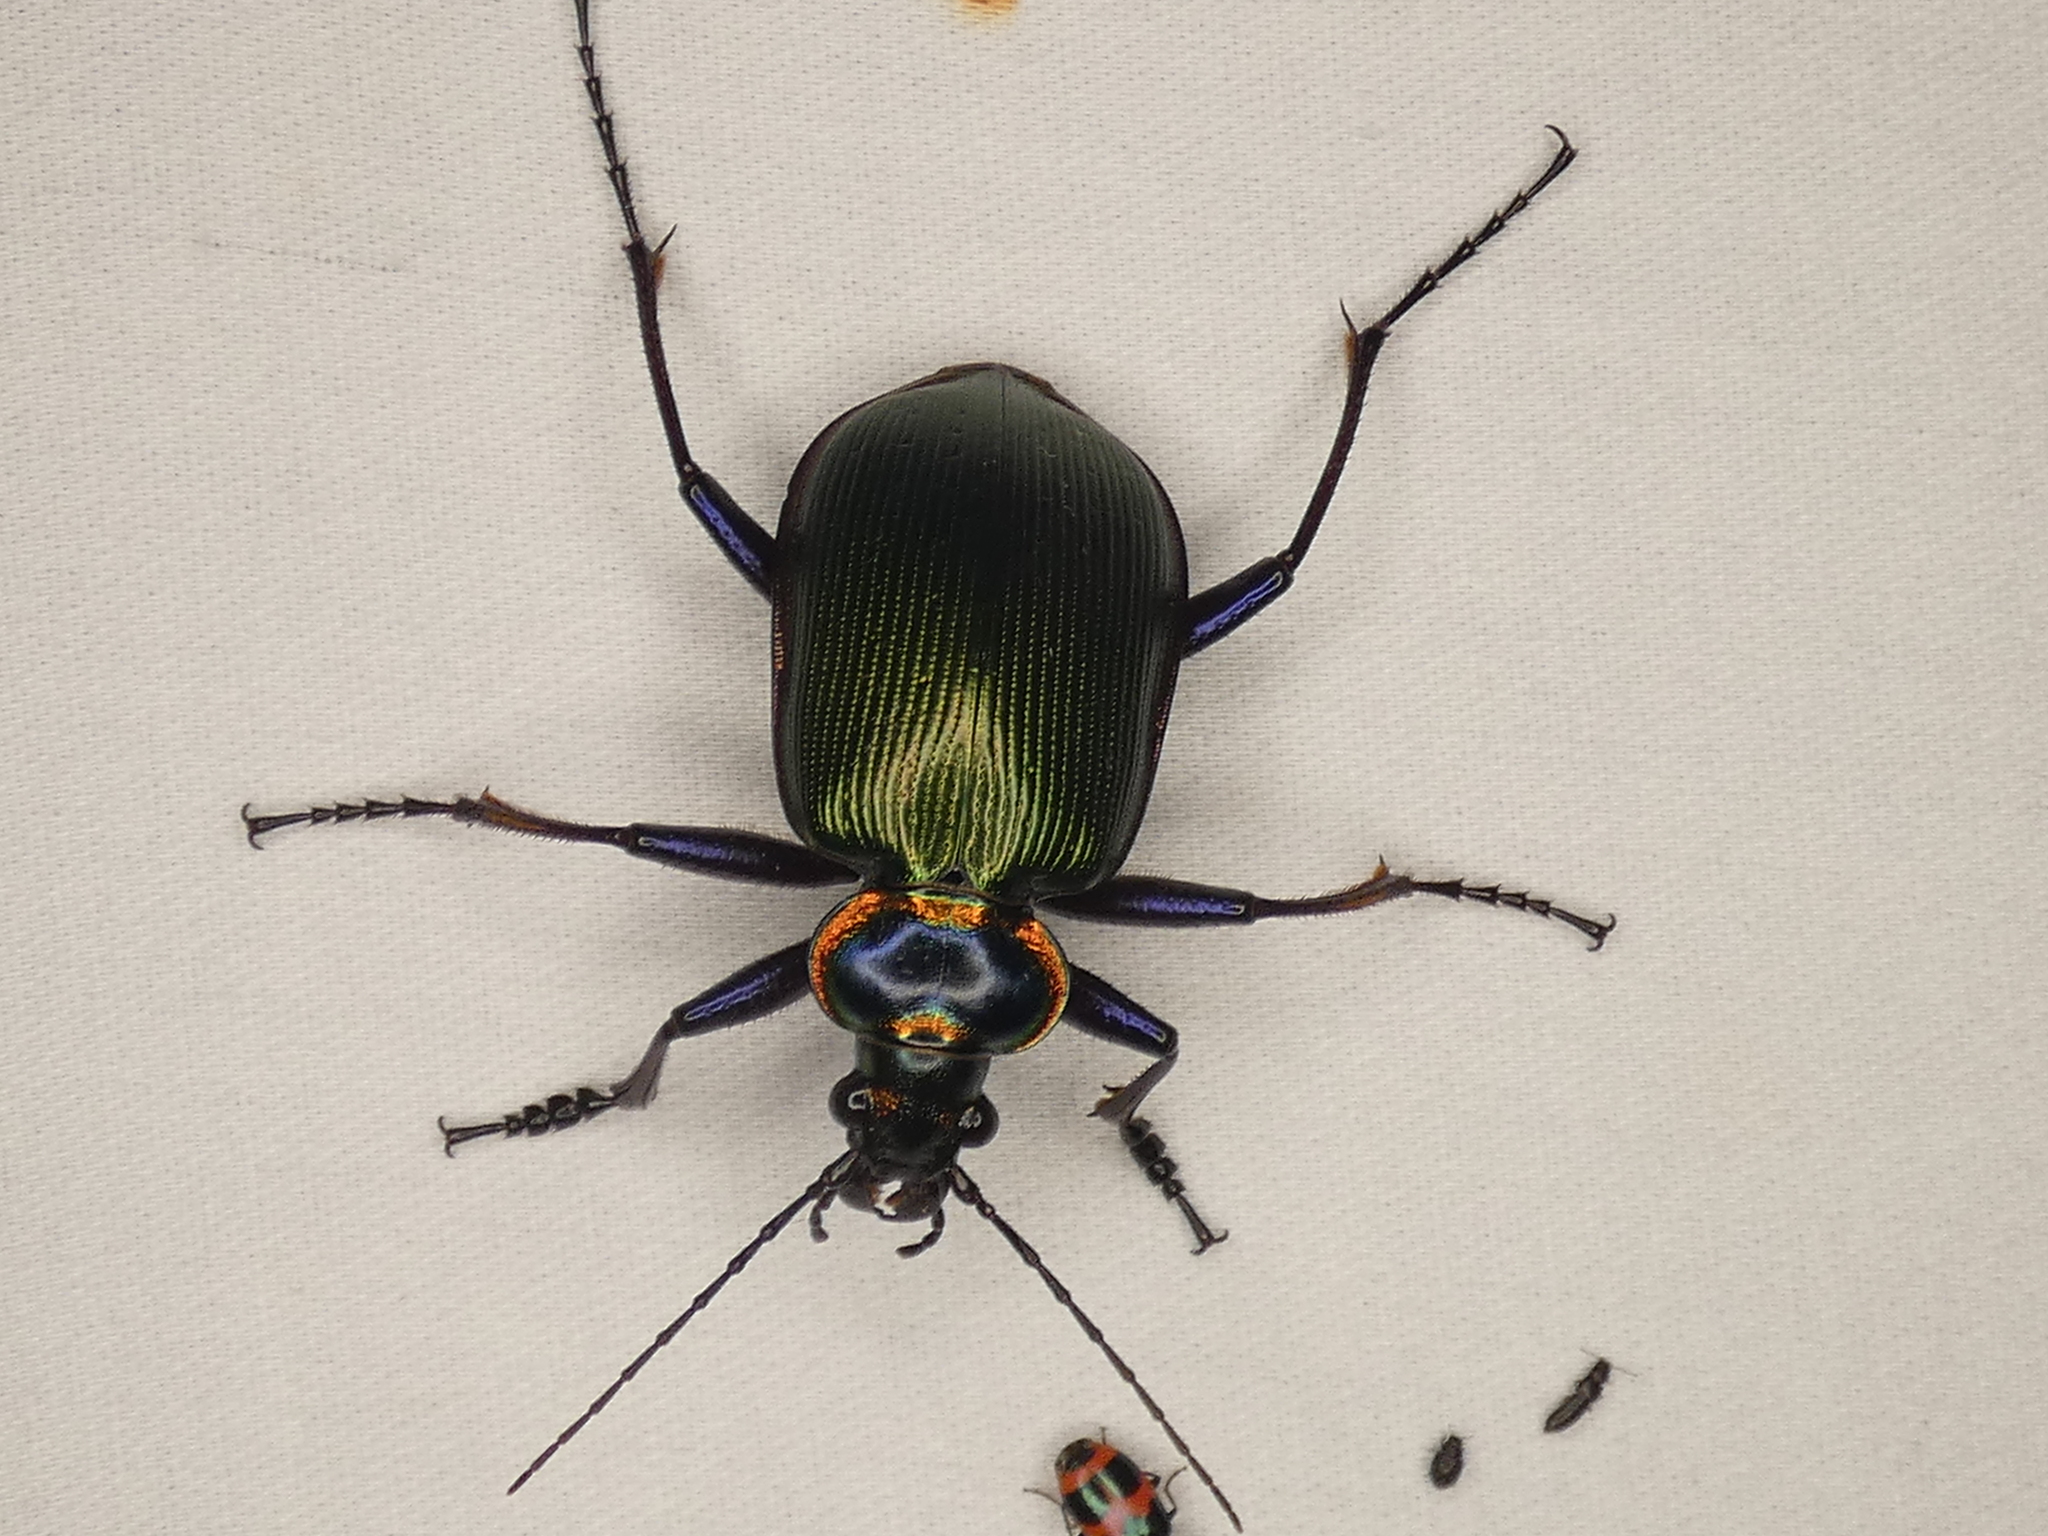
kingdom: Animalia
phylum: Arthropoda
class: Insecta
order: Coleoptera
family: Carabidae
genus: Calosoma
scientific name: Calosoma scrutator
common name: Fiery searcher beetle
